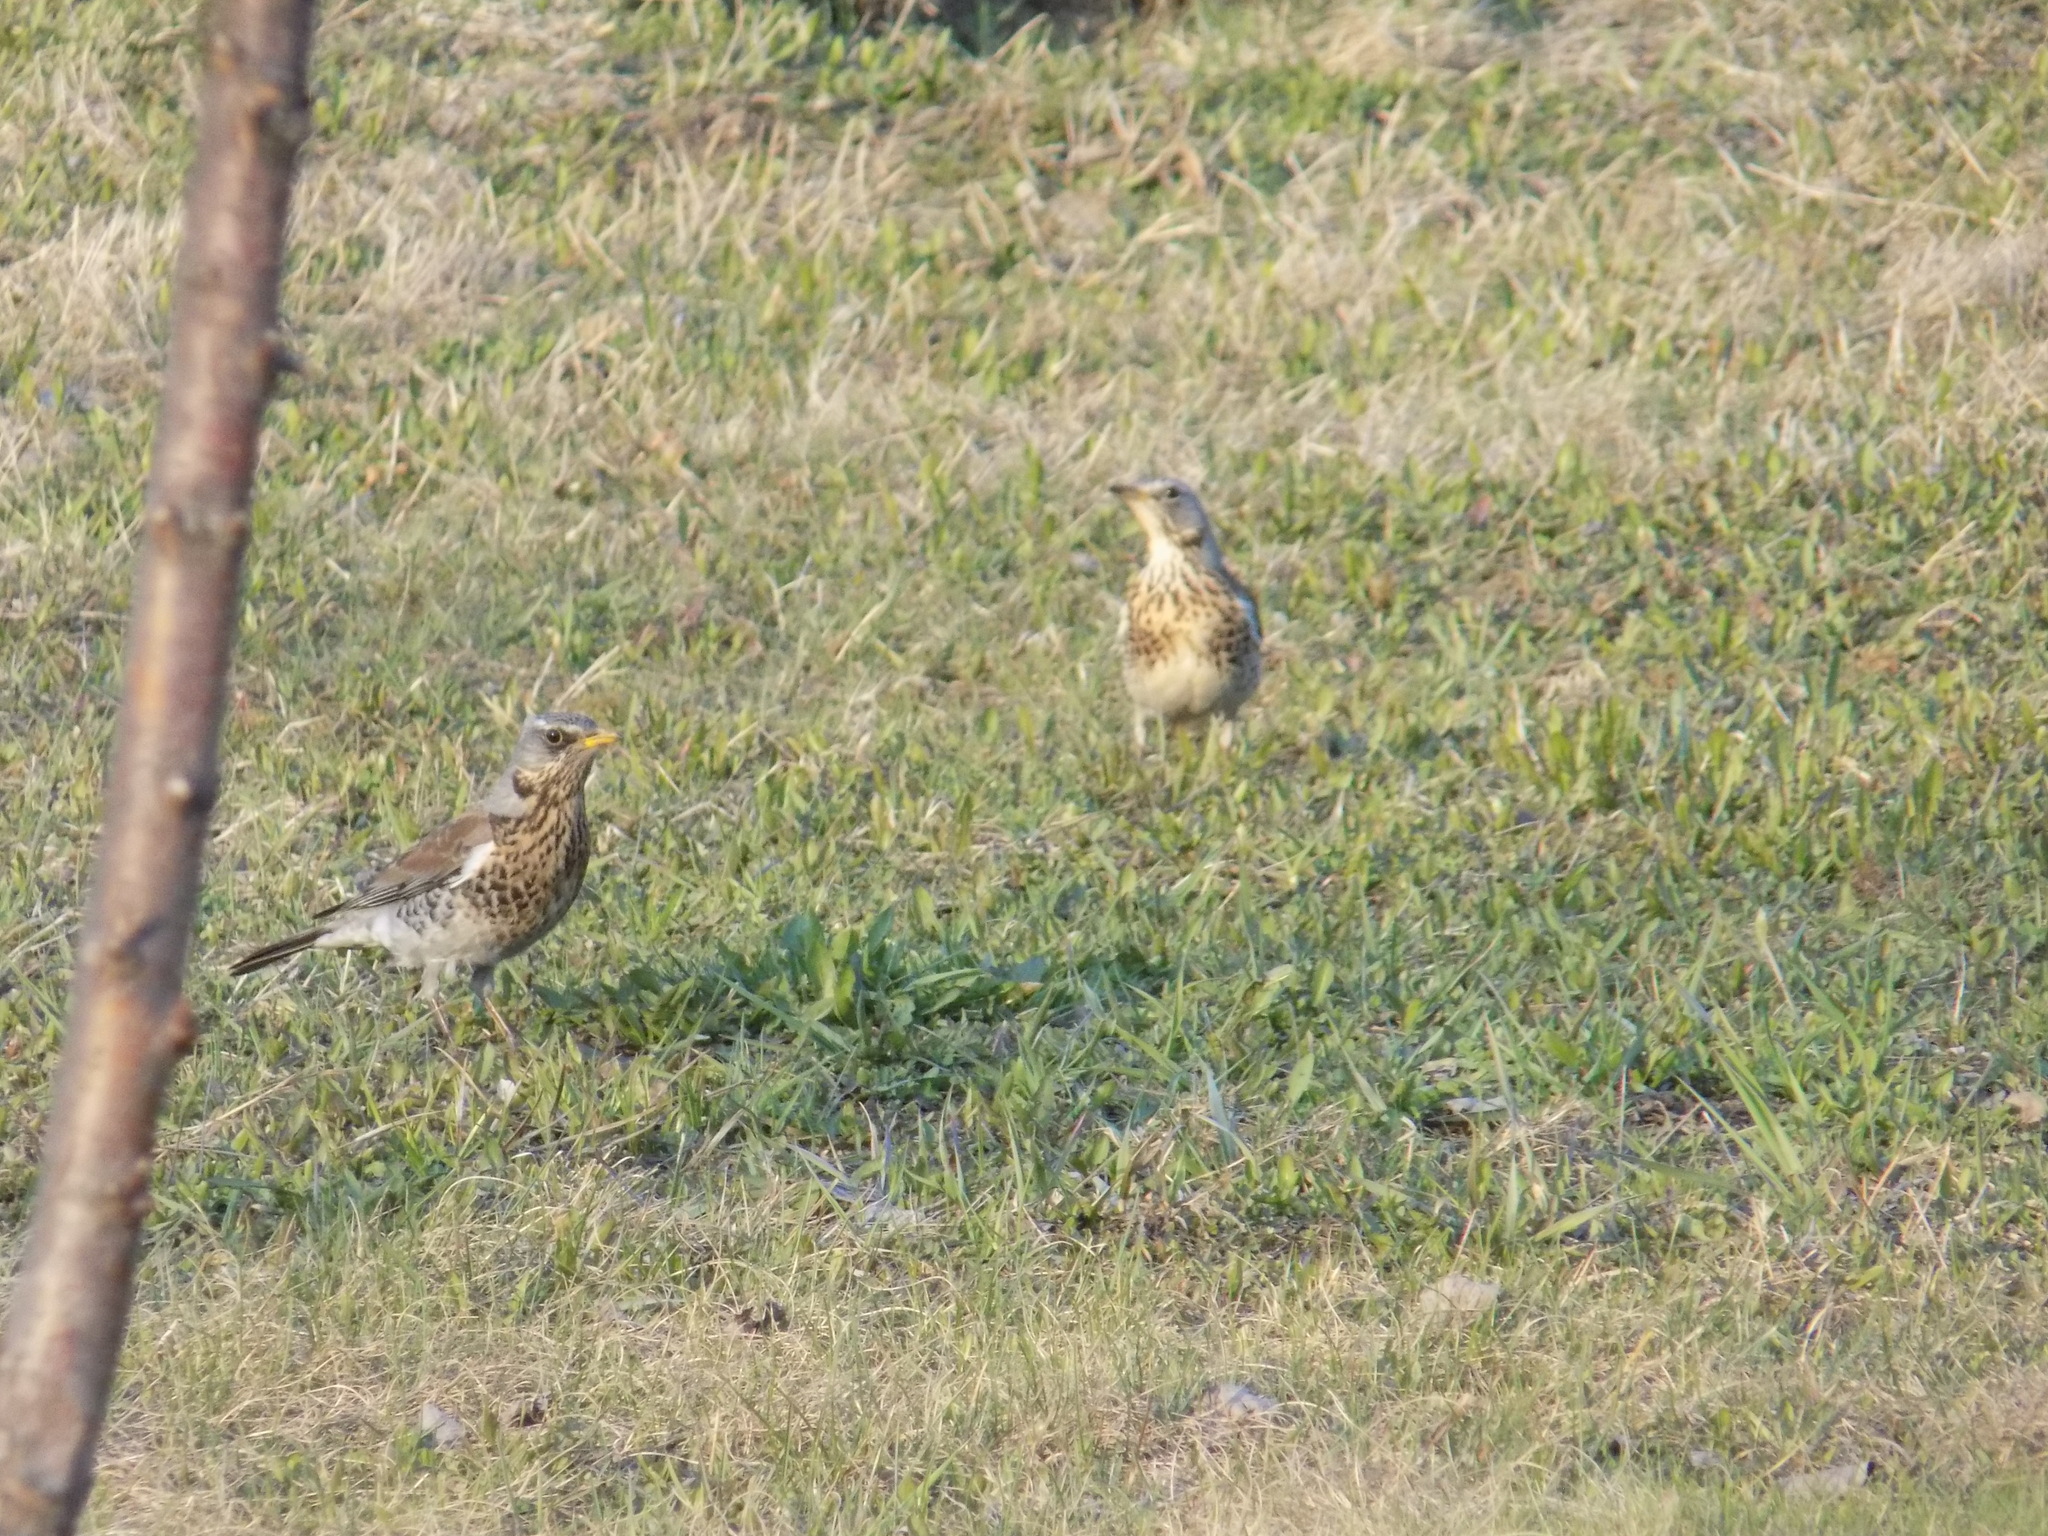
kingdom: Animalia
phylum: Chordata
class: Aves
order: Passeriformes
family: Turdidae
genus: Turdus
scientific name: Turdus pilaris
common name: Fieldfare
